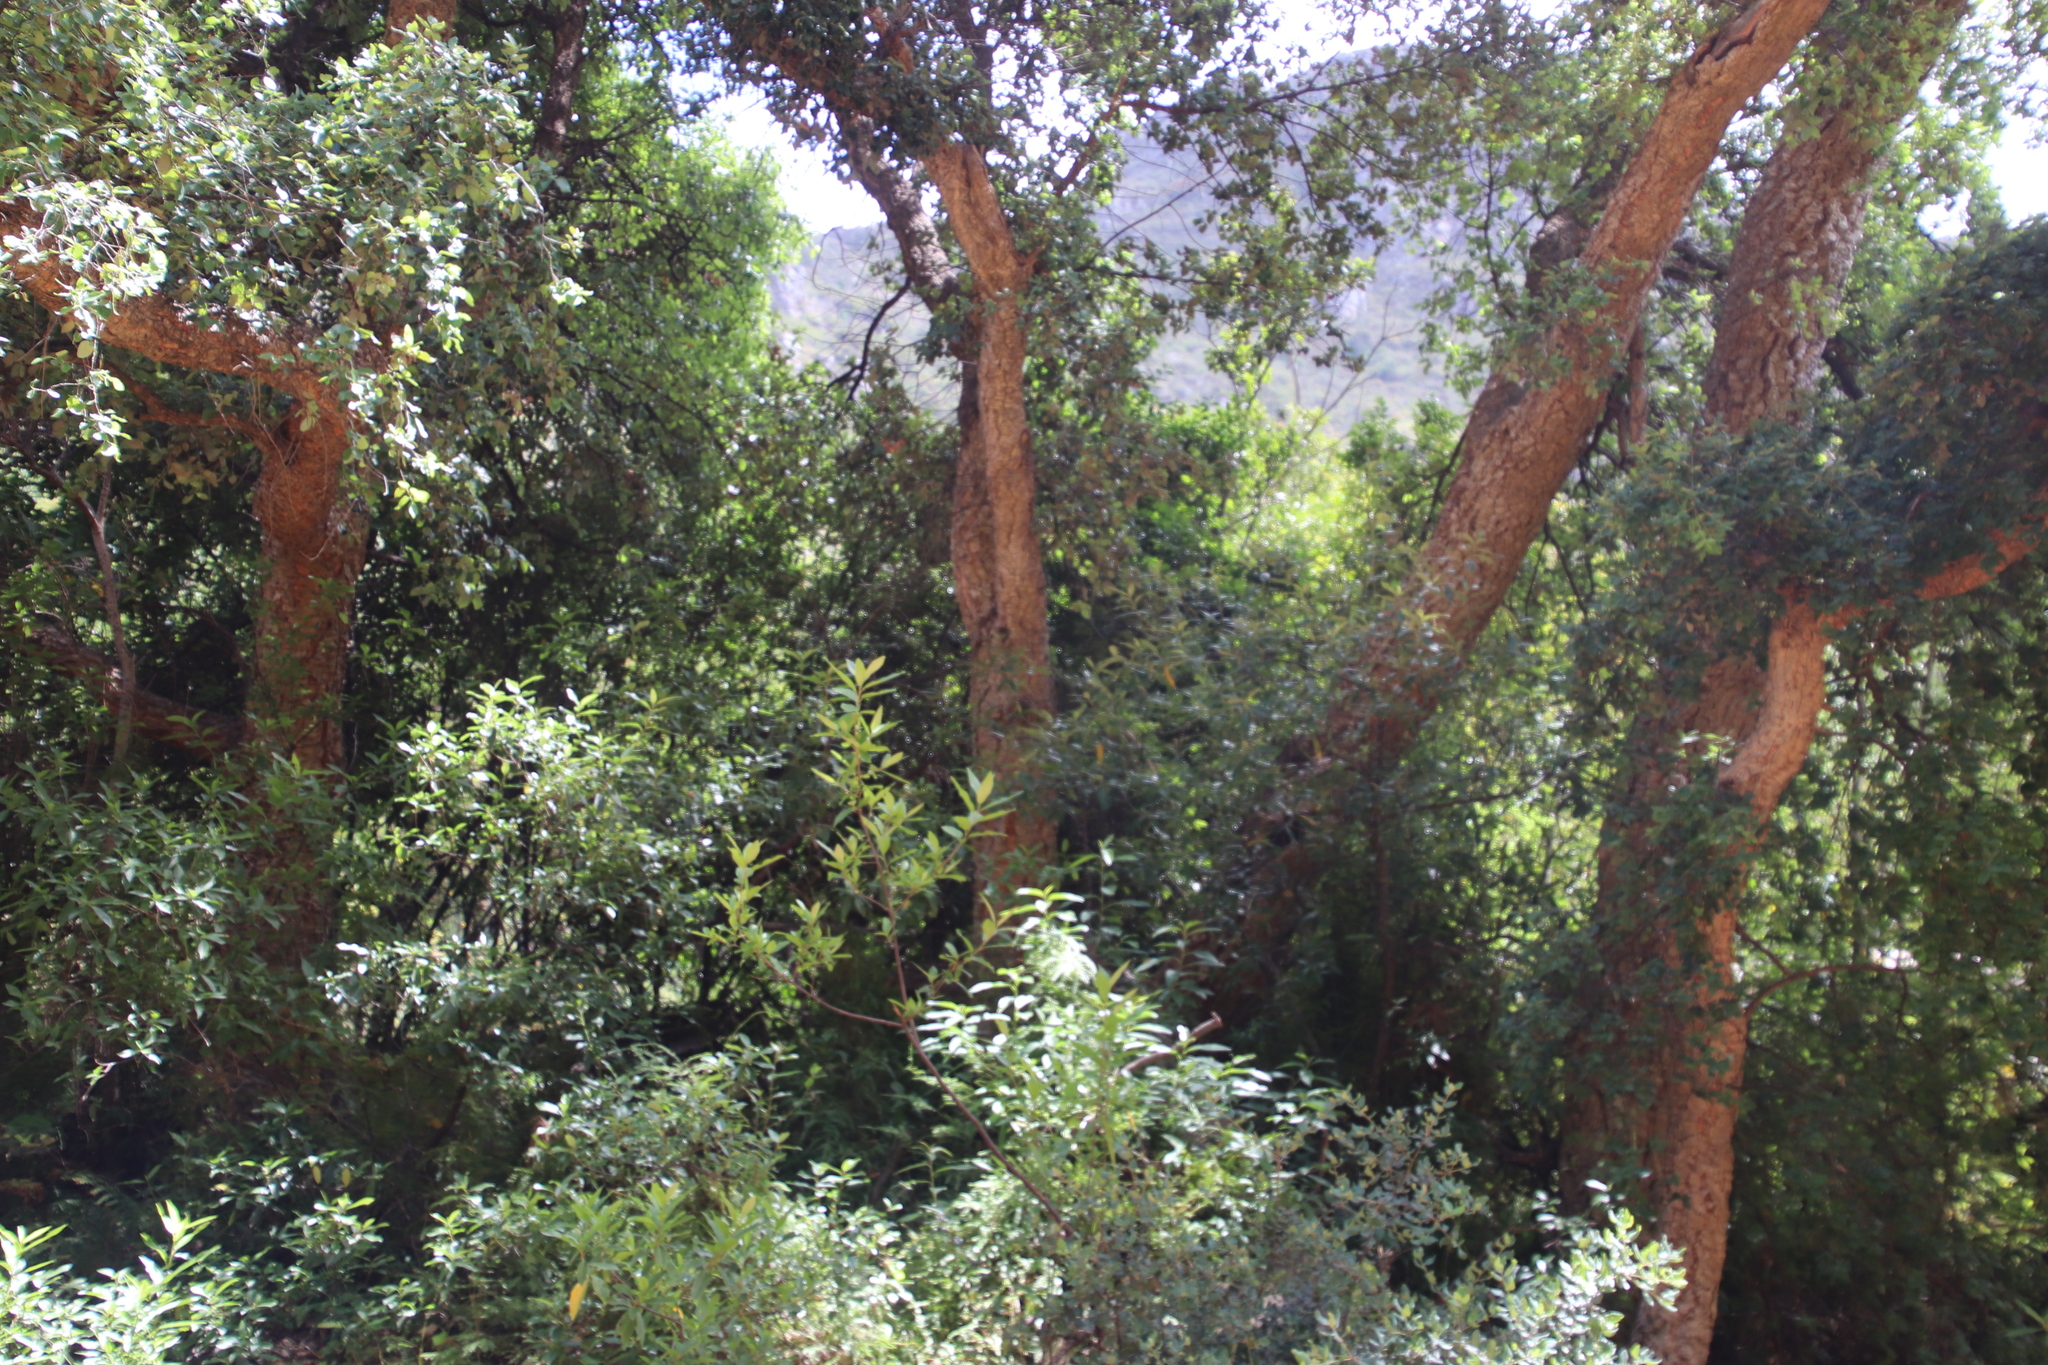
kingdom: Plantae
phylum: Tracheophyta
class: Magnoliopsida
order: Fagales
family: Fagaceae
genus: Quercus
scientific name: Quercus suber
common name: Cork oak
